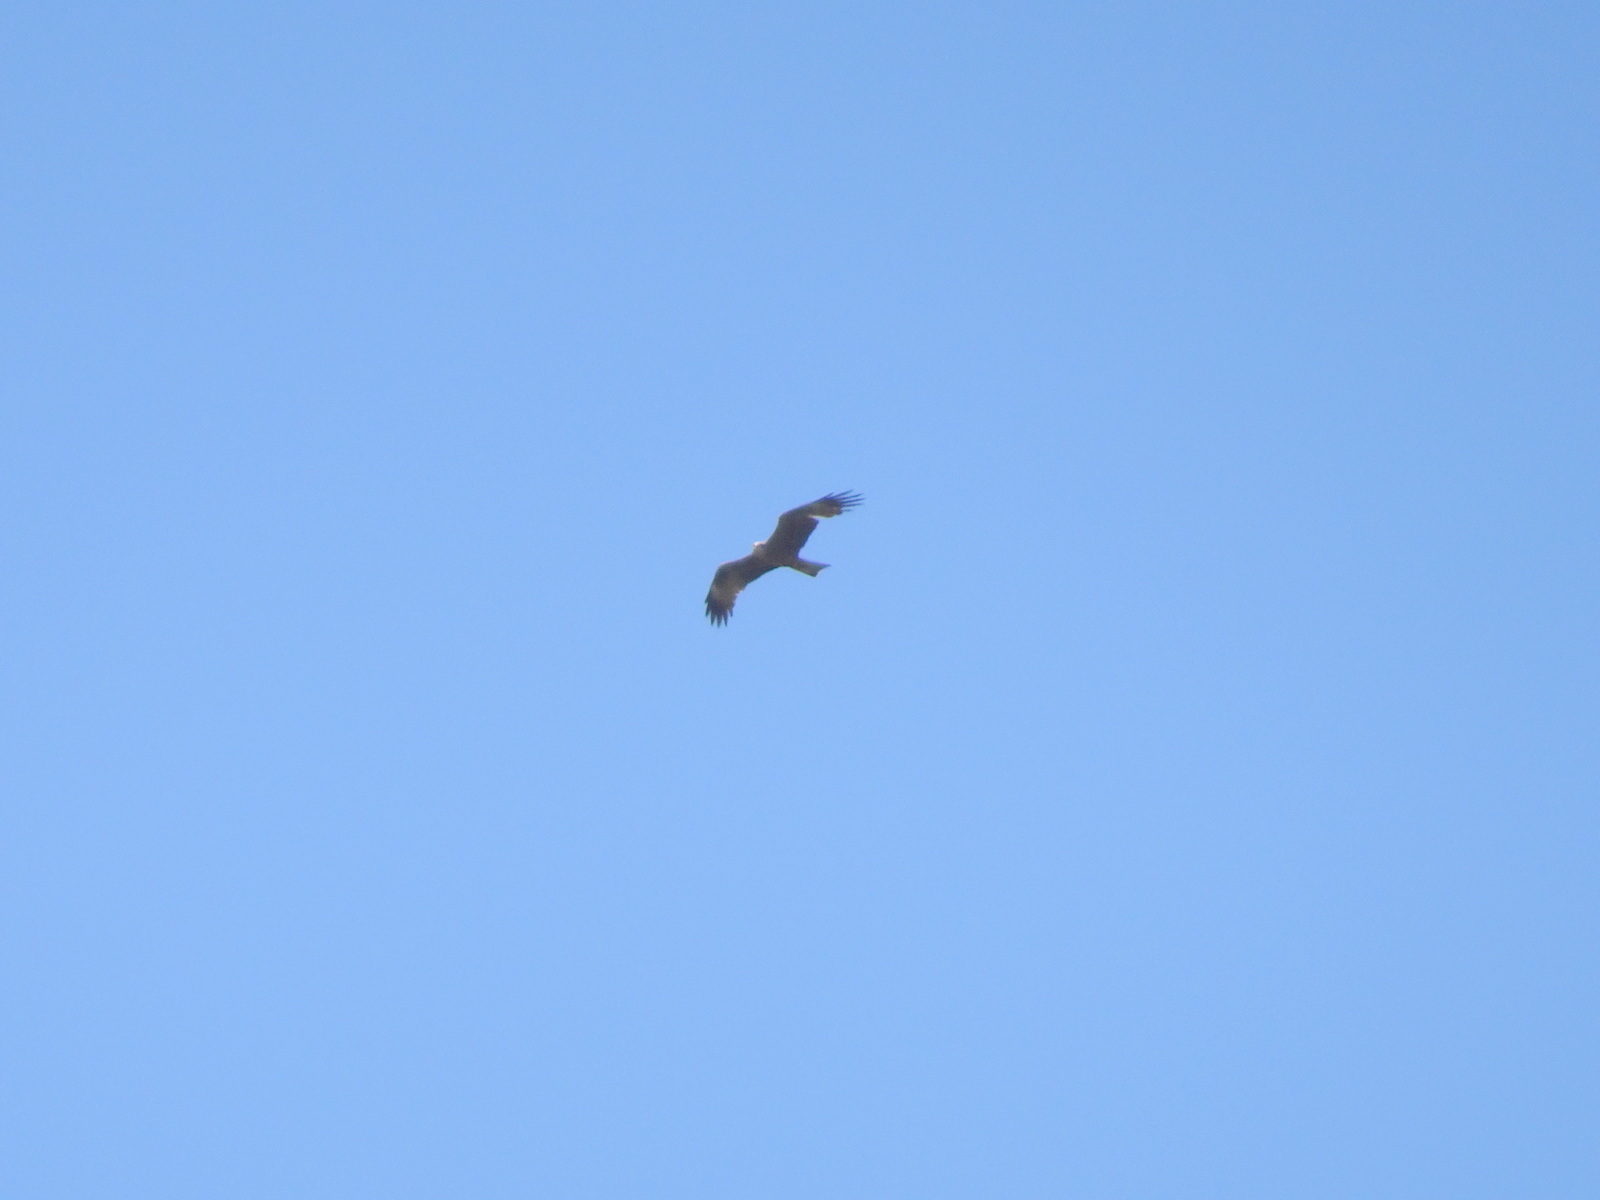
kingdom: Animalia
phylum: Chordata
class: Aves
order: Accipitriformes
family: Accipitridae
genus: Milvus
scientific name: Milvus migrans
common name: Black kite
